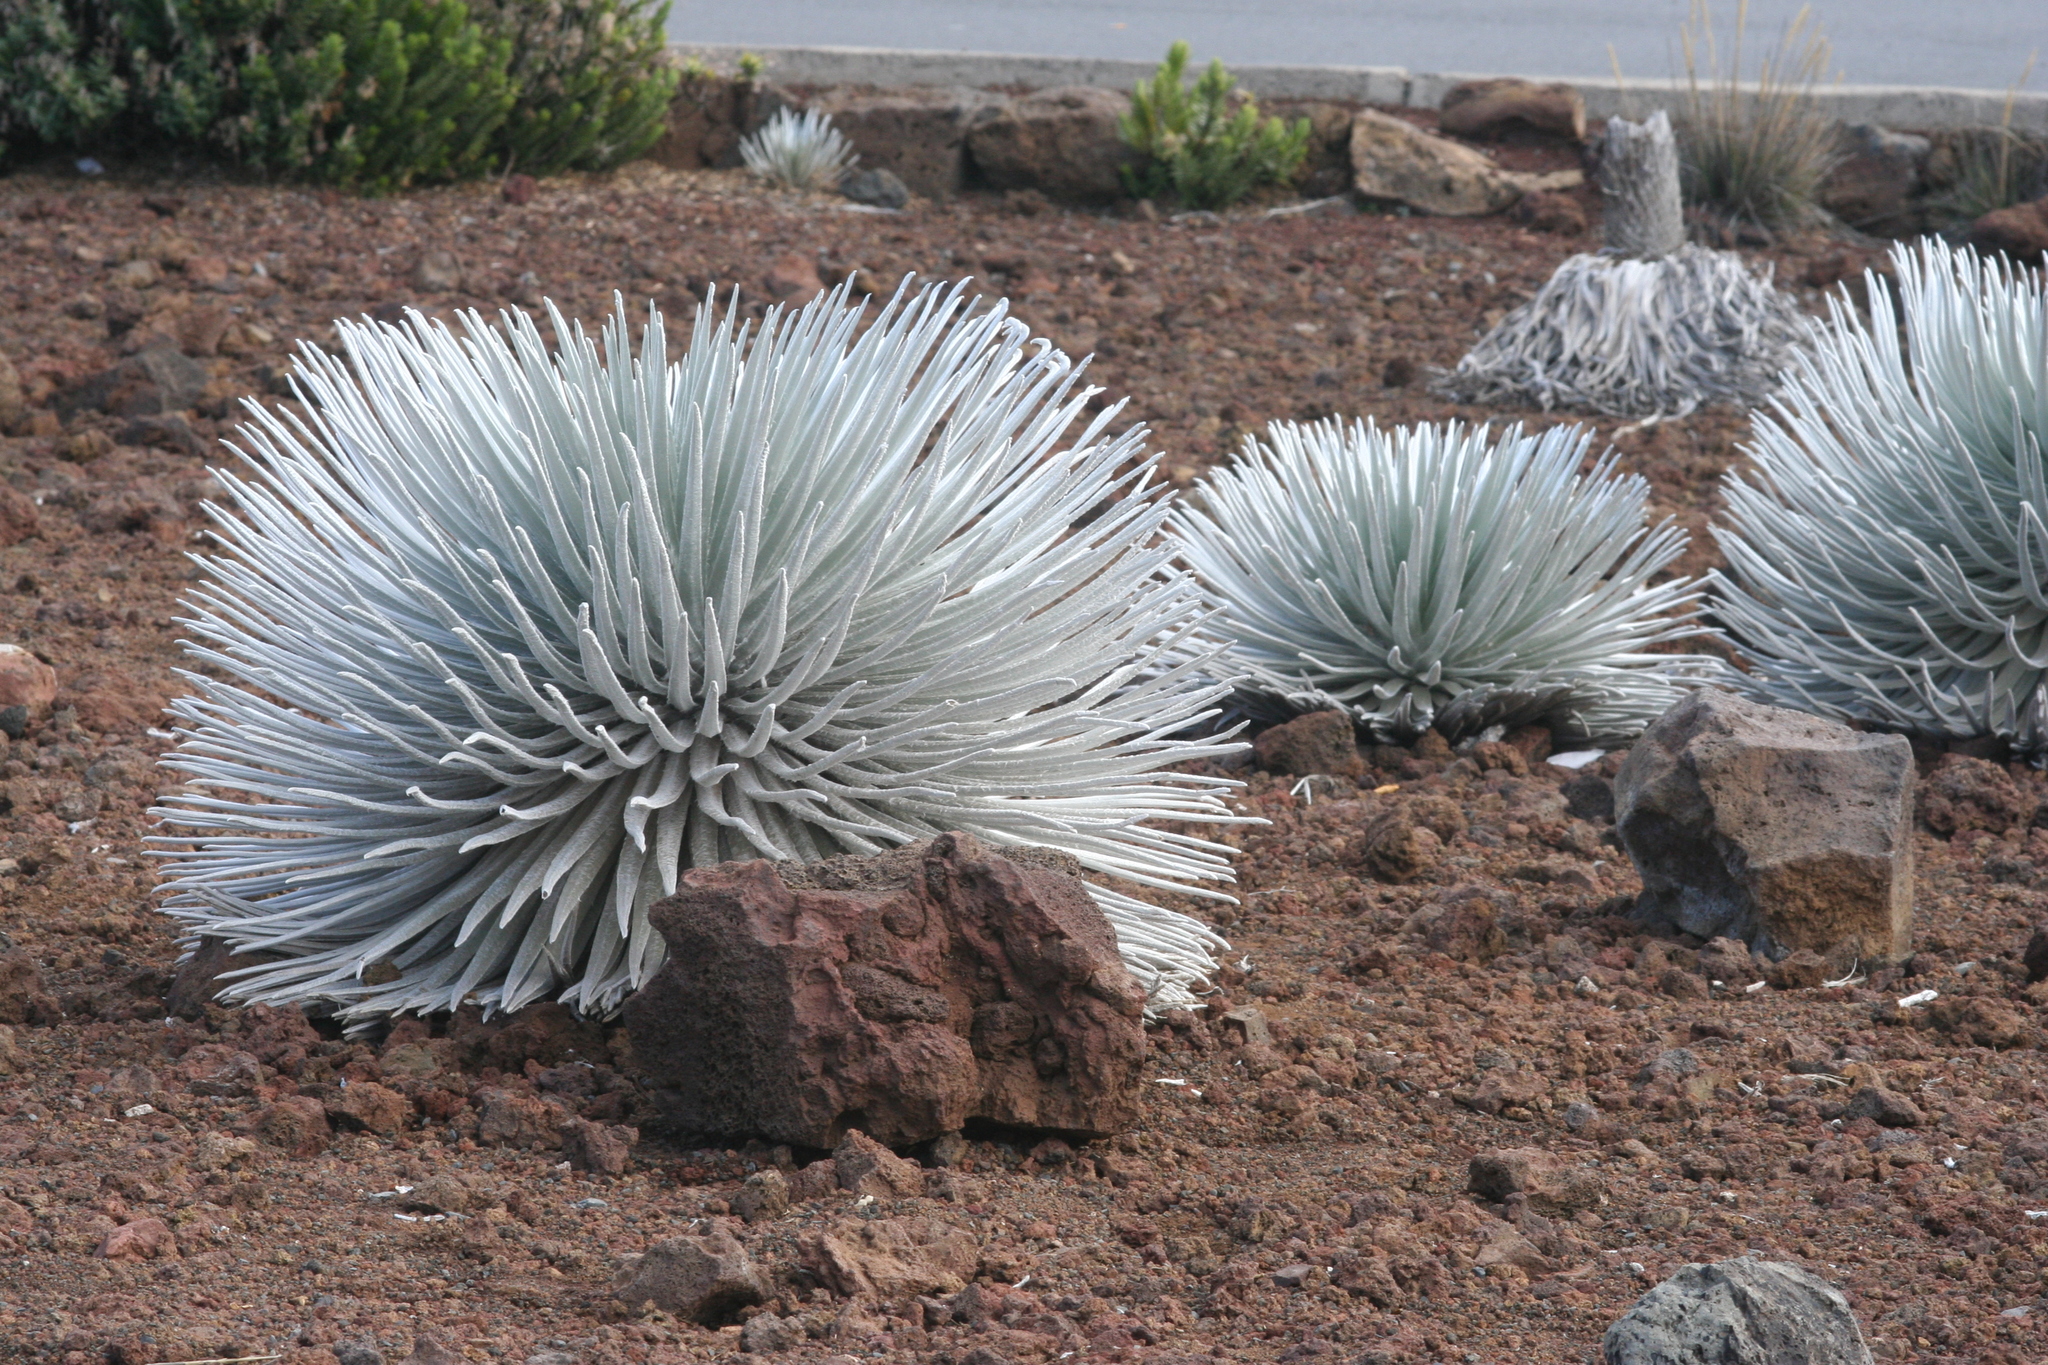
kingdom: Plantae
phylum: Tracheophyta
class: Magnoliopsida
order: Asterales
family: Asteraceae
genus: Argyroxiphium
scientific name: Argyroxiphium sandwicense
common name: Silversword
